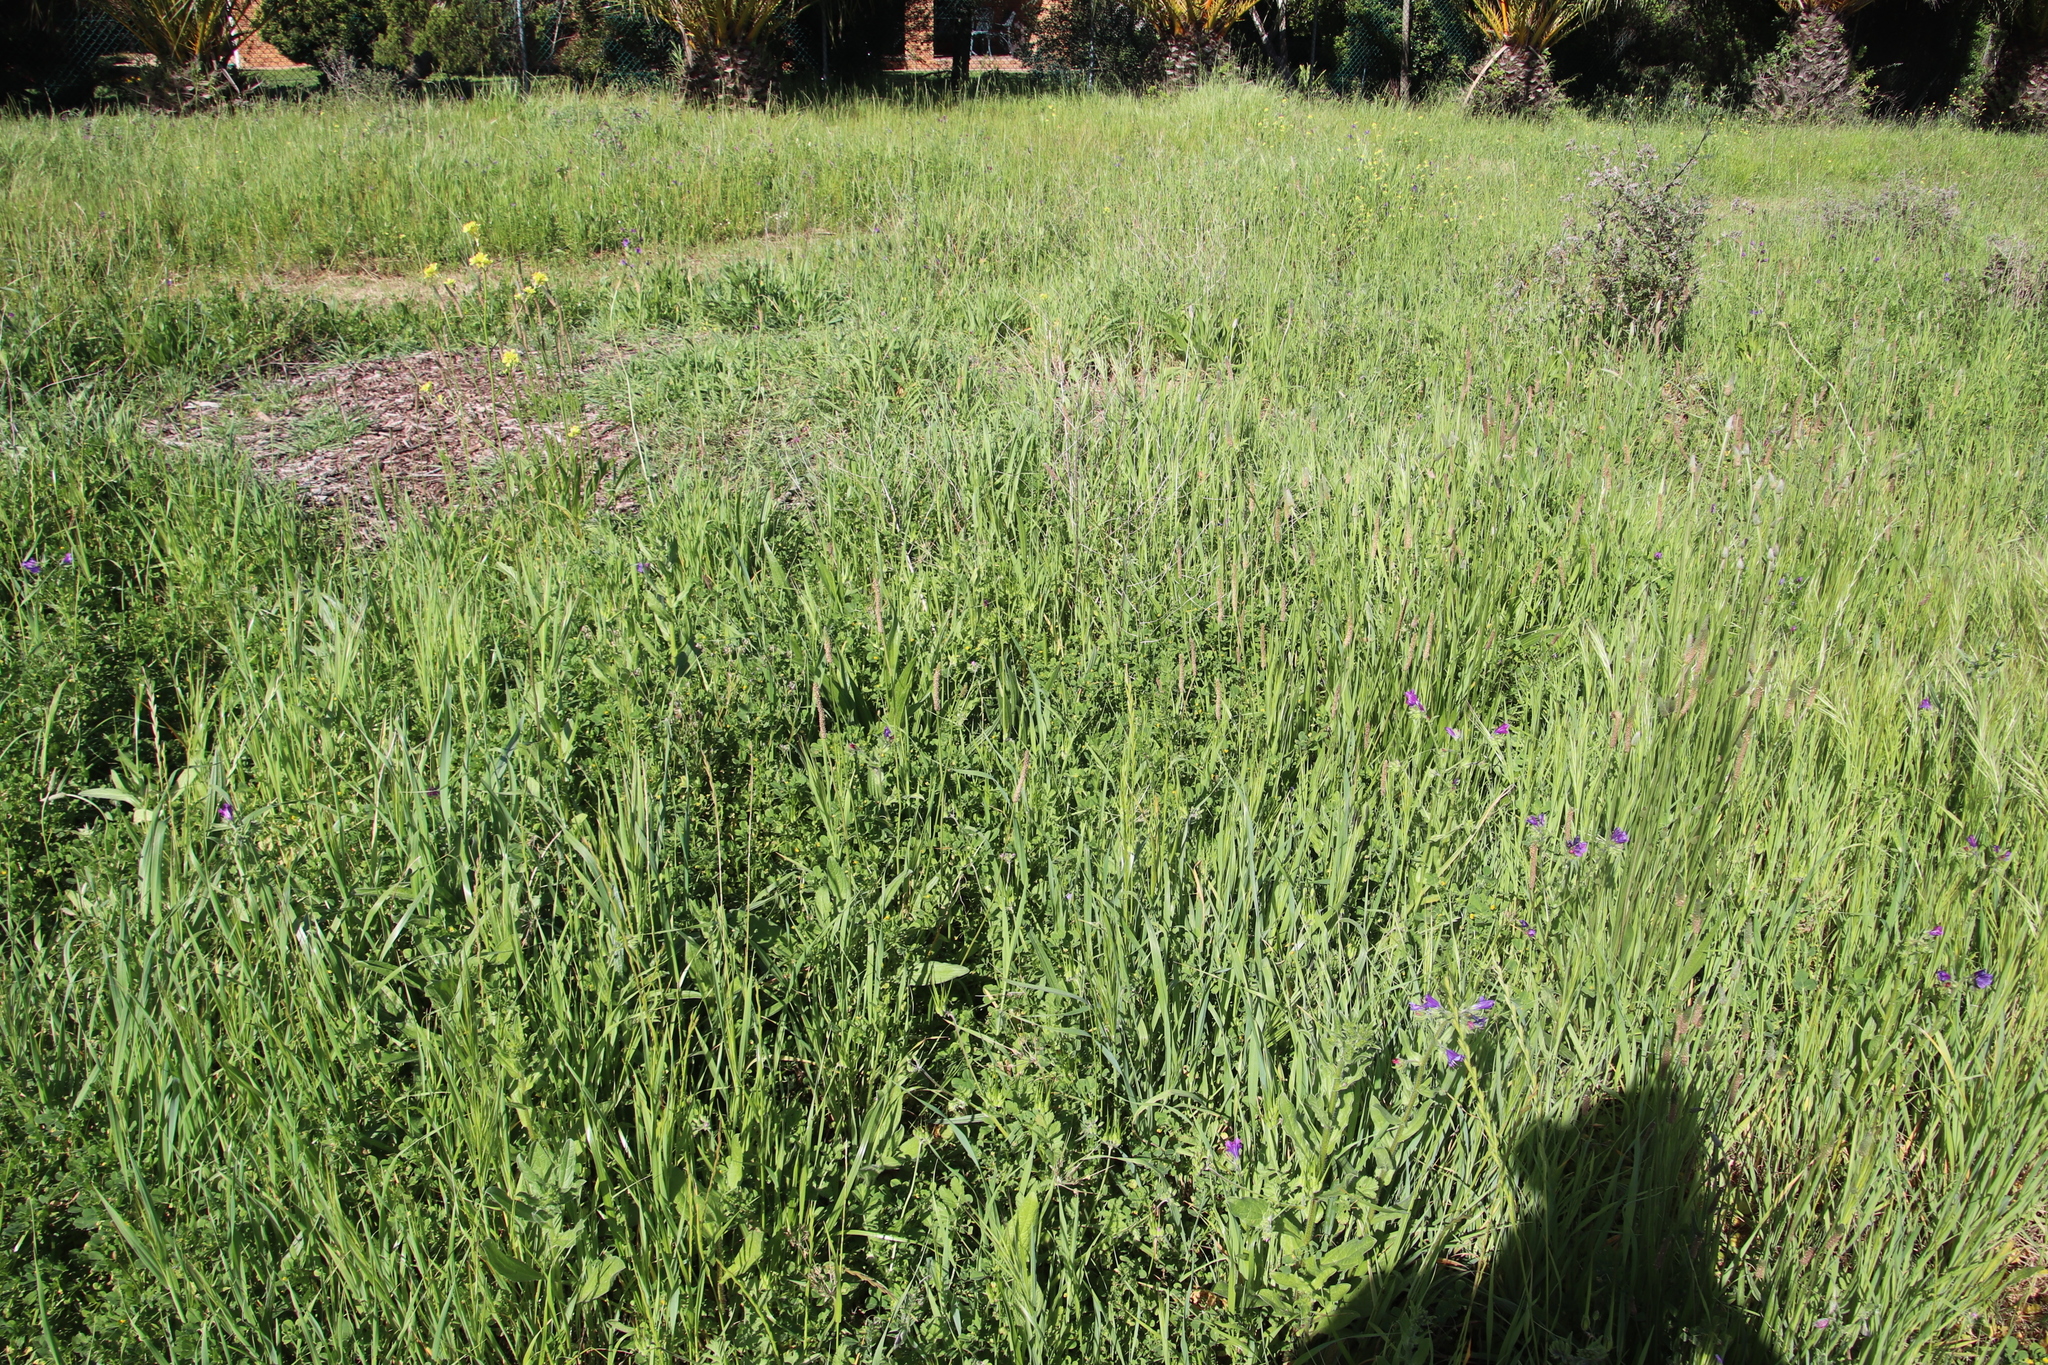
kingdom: Plantae
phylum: Tracheophyta
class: Magnoliopsida
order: Fabales
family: Fabaceae
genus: Medicago
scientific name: Medicago polymorpha
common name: Burclover
